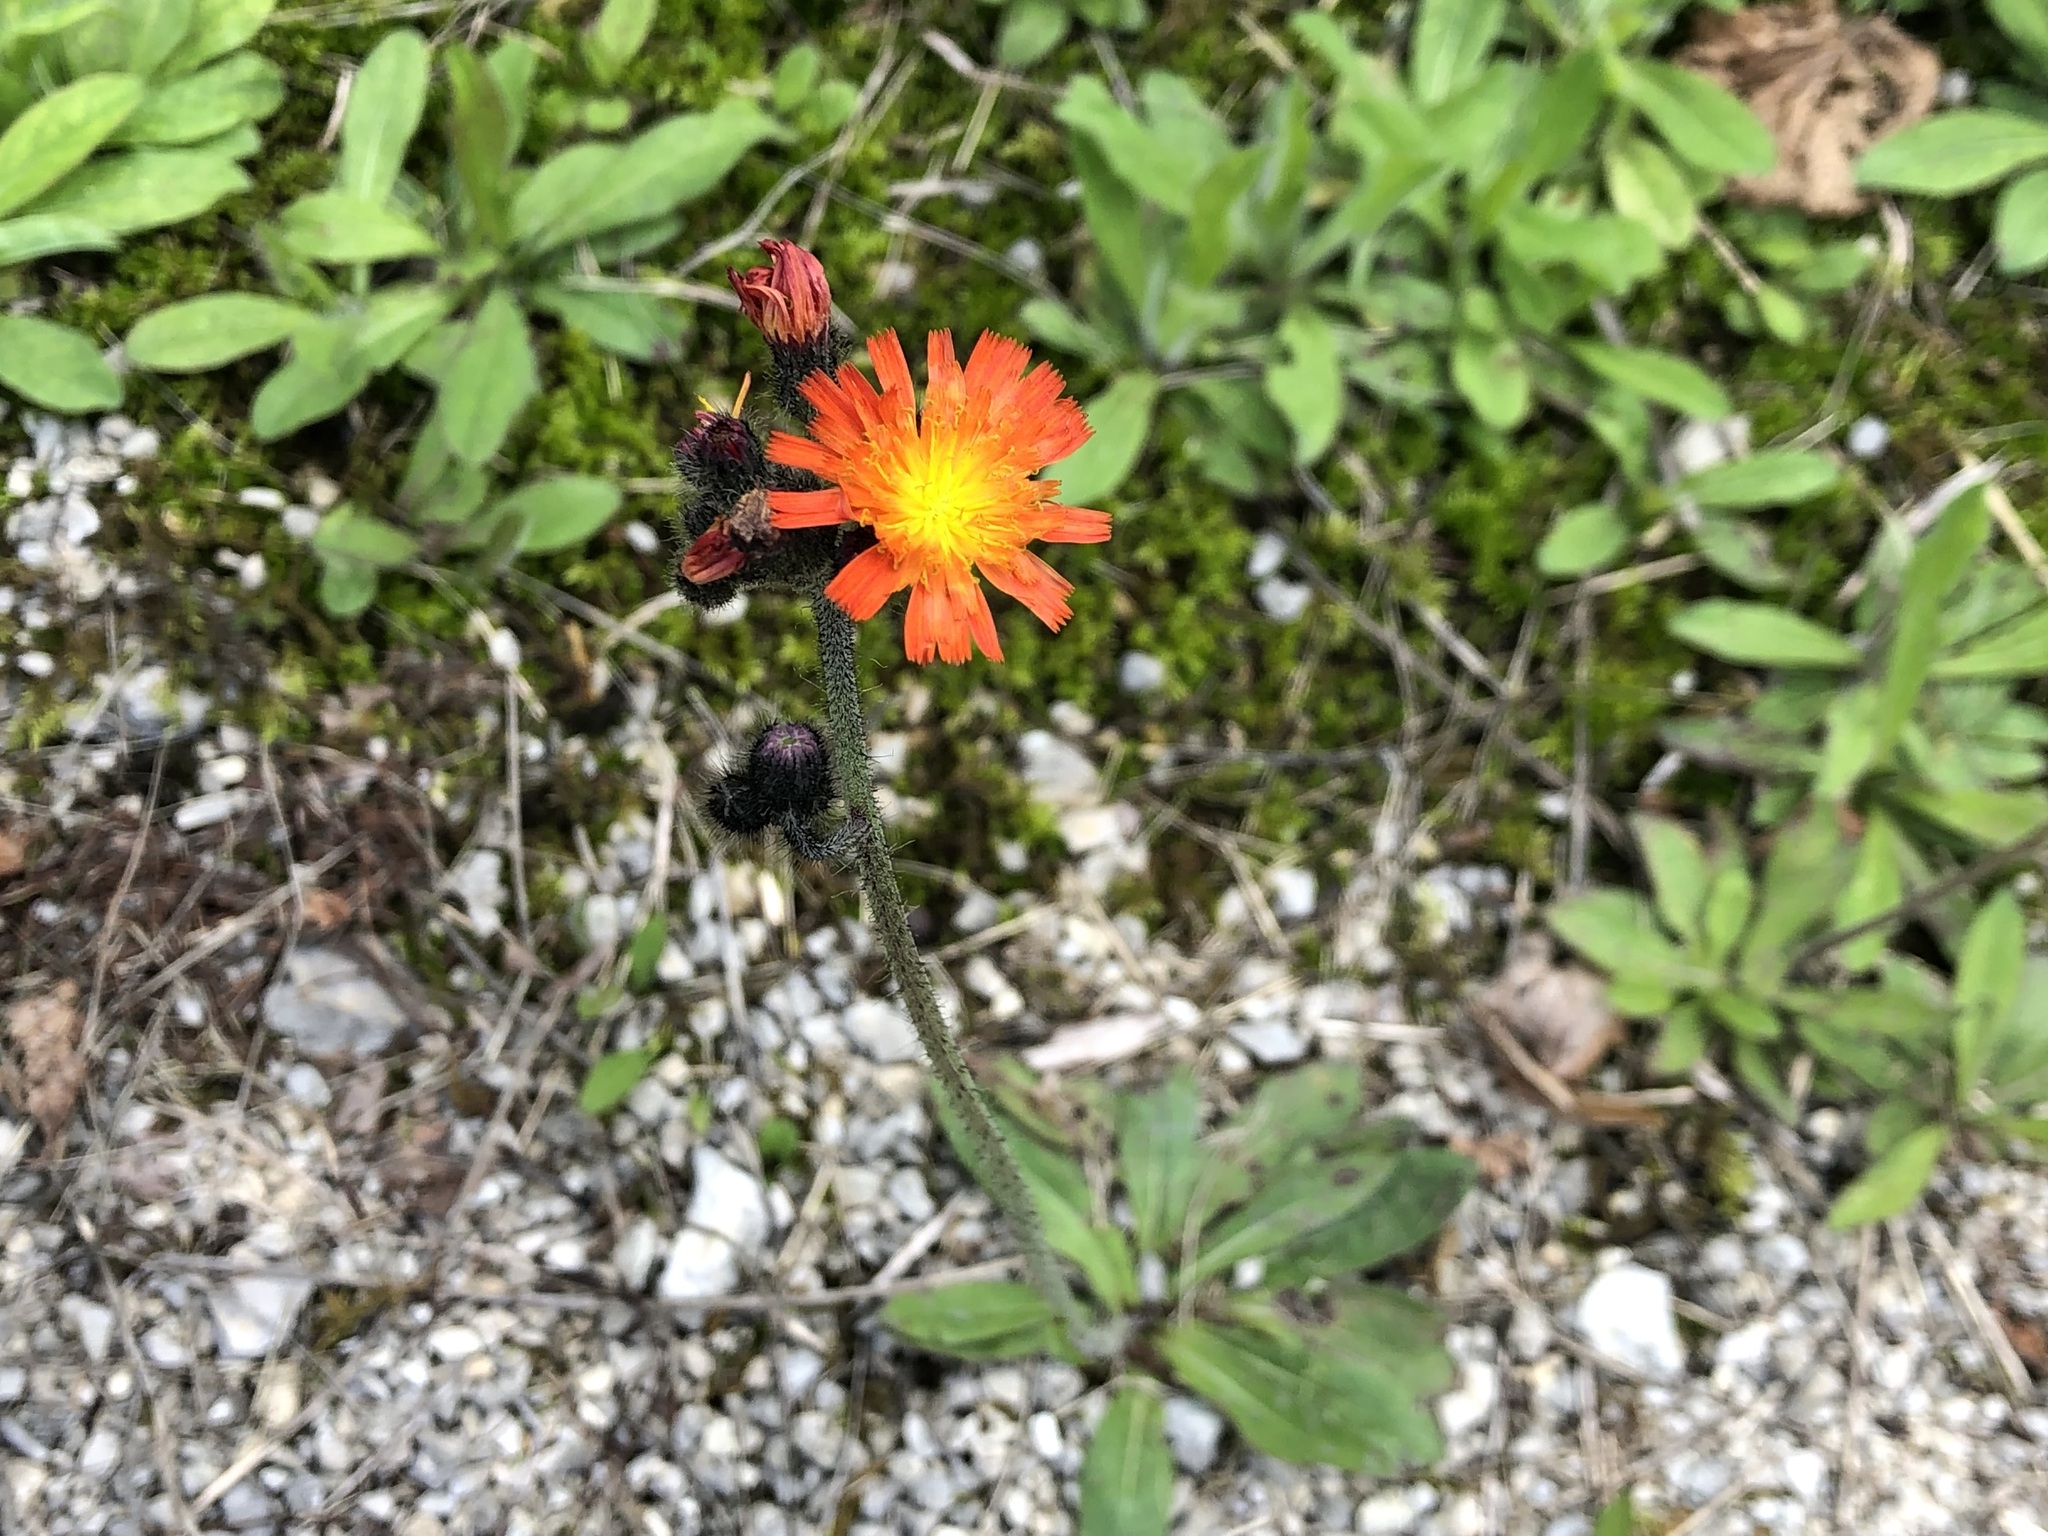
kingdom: Plantae
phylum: Tracheophyta
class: Magnoliopsida
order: Asterales
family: Asteraceae
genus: Pilosella
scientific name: Pilosella aurantiaca
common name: Fox-and-cubs
